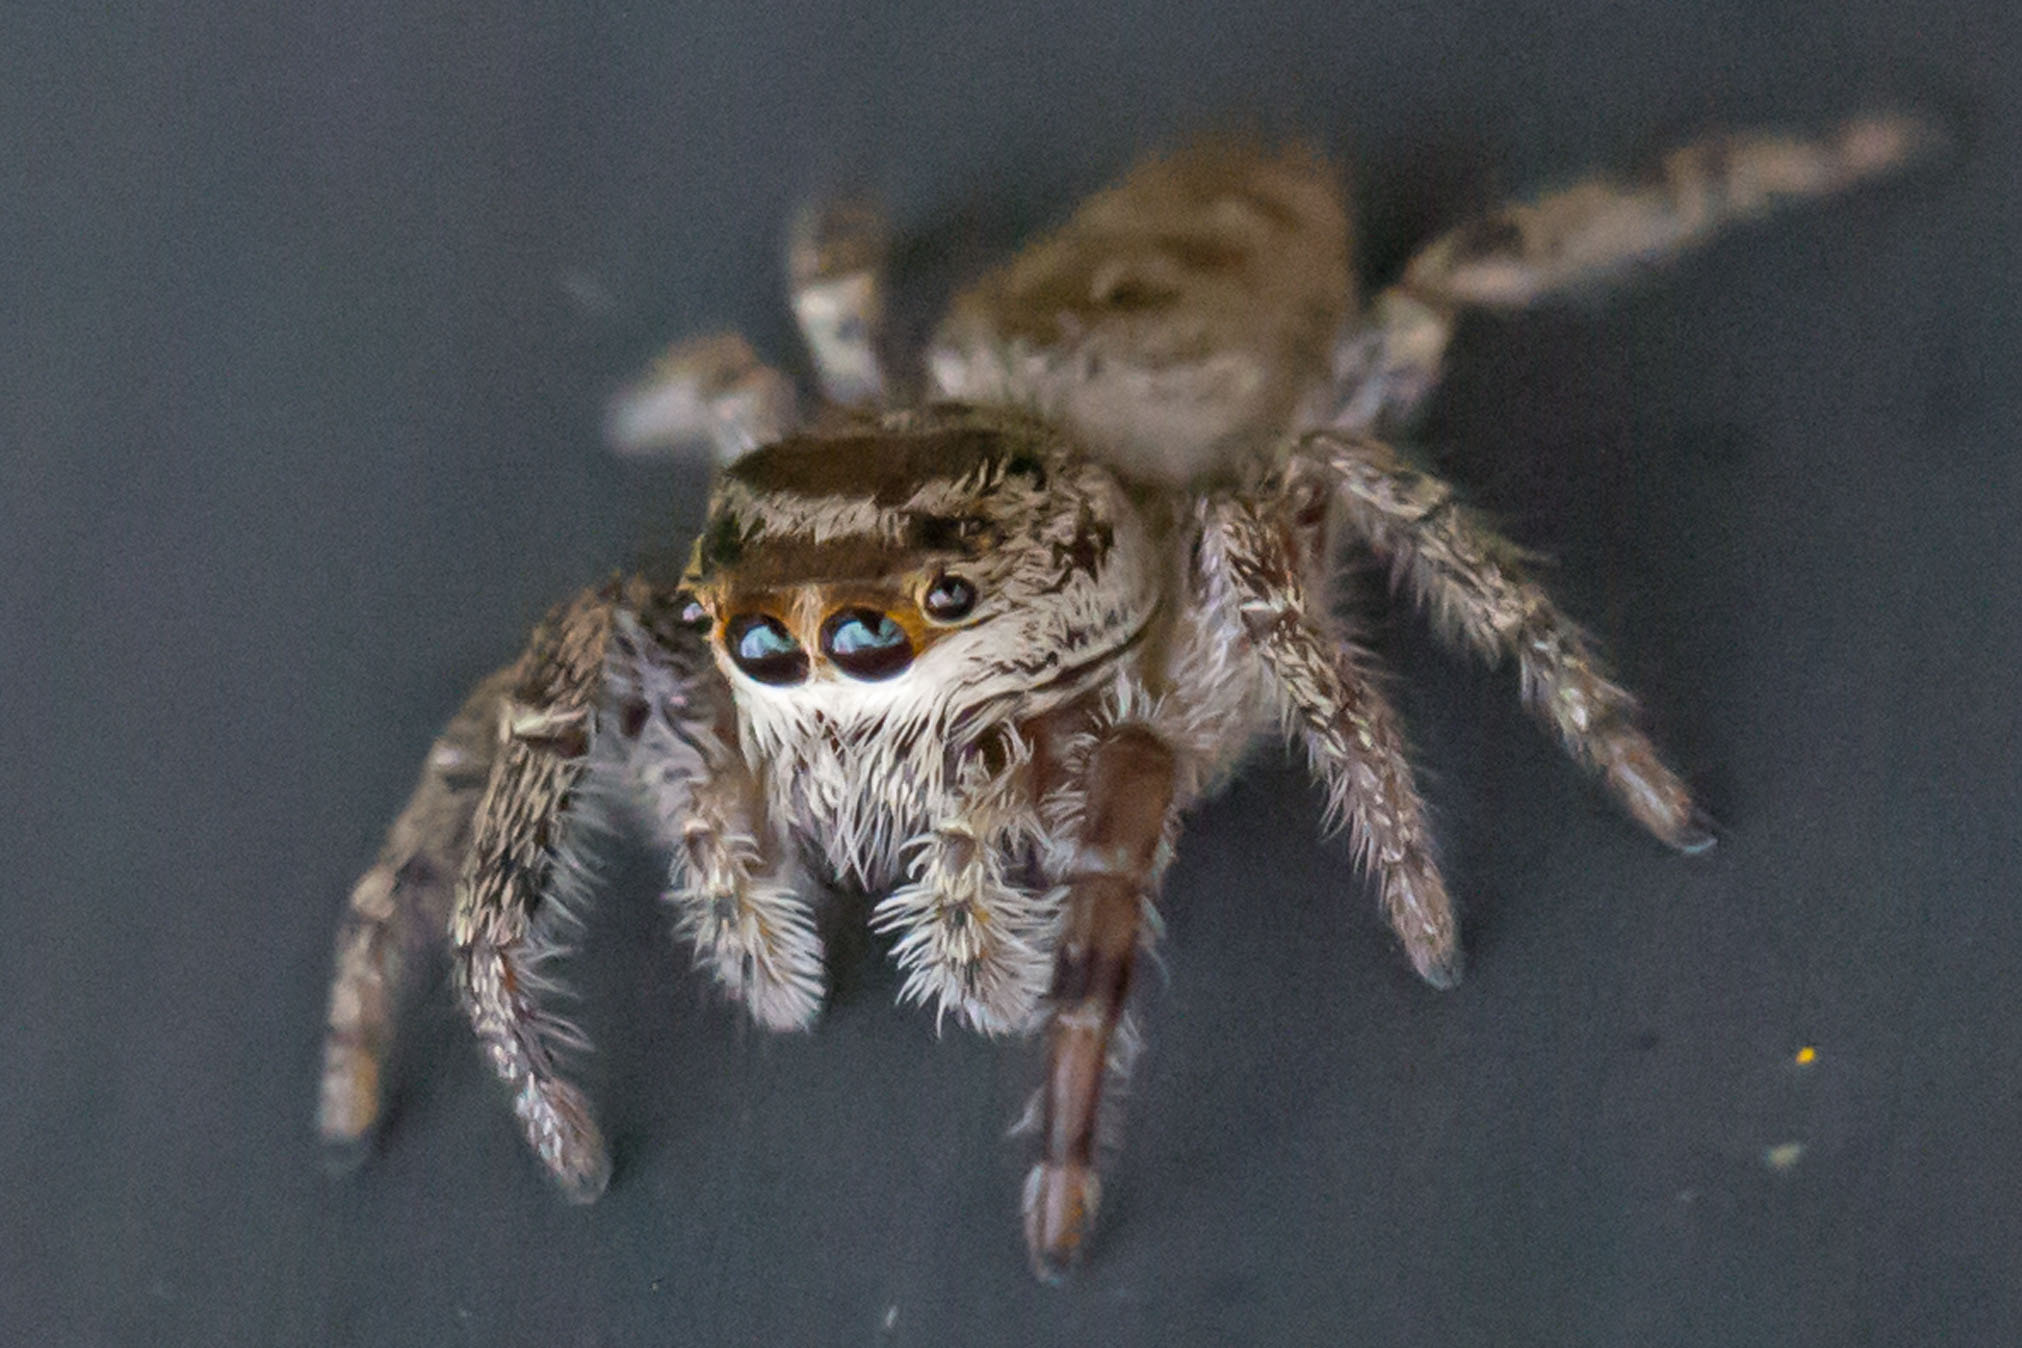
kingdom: Animalia
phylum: Arthropoda
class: Arachnida
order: Araneae
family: Salticidae
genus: Eris
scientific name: Eris militaris
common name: Bronze jumper
